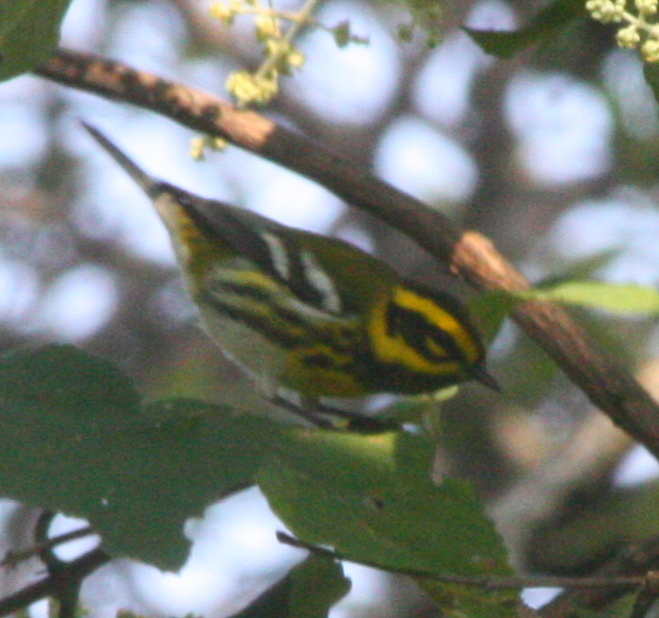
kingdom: Animalia
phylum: Chordata
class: Aves
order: Passeriformes
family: Parulidae
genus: Setophaga
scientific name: Setophaga townsendi
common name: Townsend's warbler
